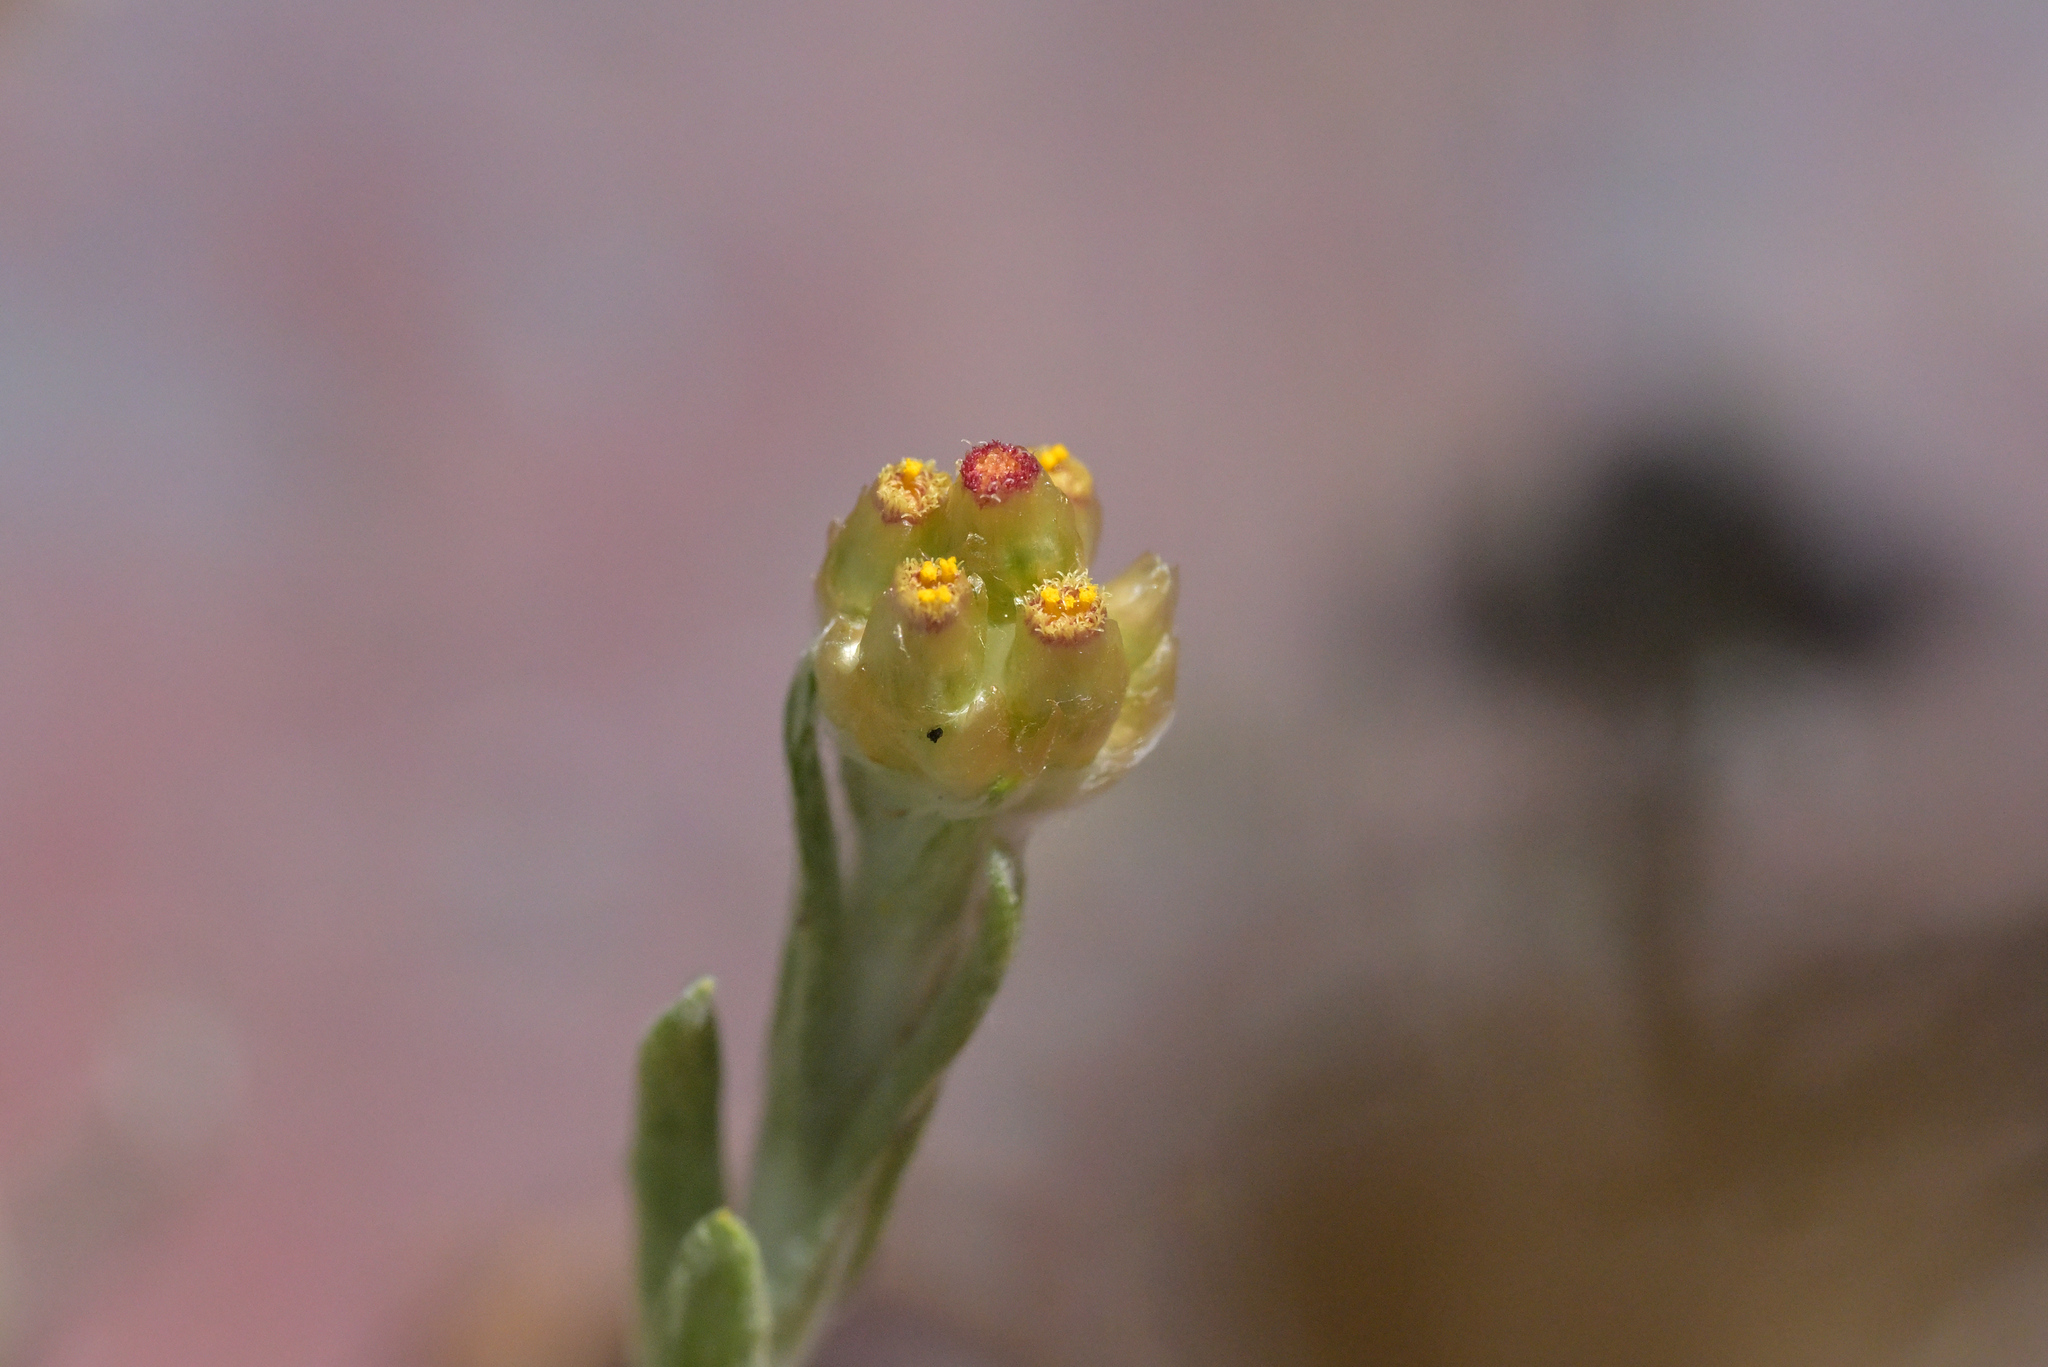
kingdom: Plantae
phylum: Tracheophyta
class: Magnoliopsida
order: Asterales
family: Asteraceae
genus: Helichrysum
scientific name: Helichrysum luteoalbum
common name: Daisy
